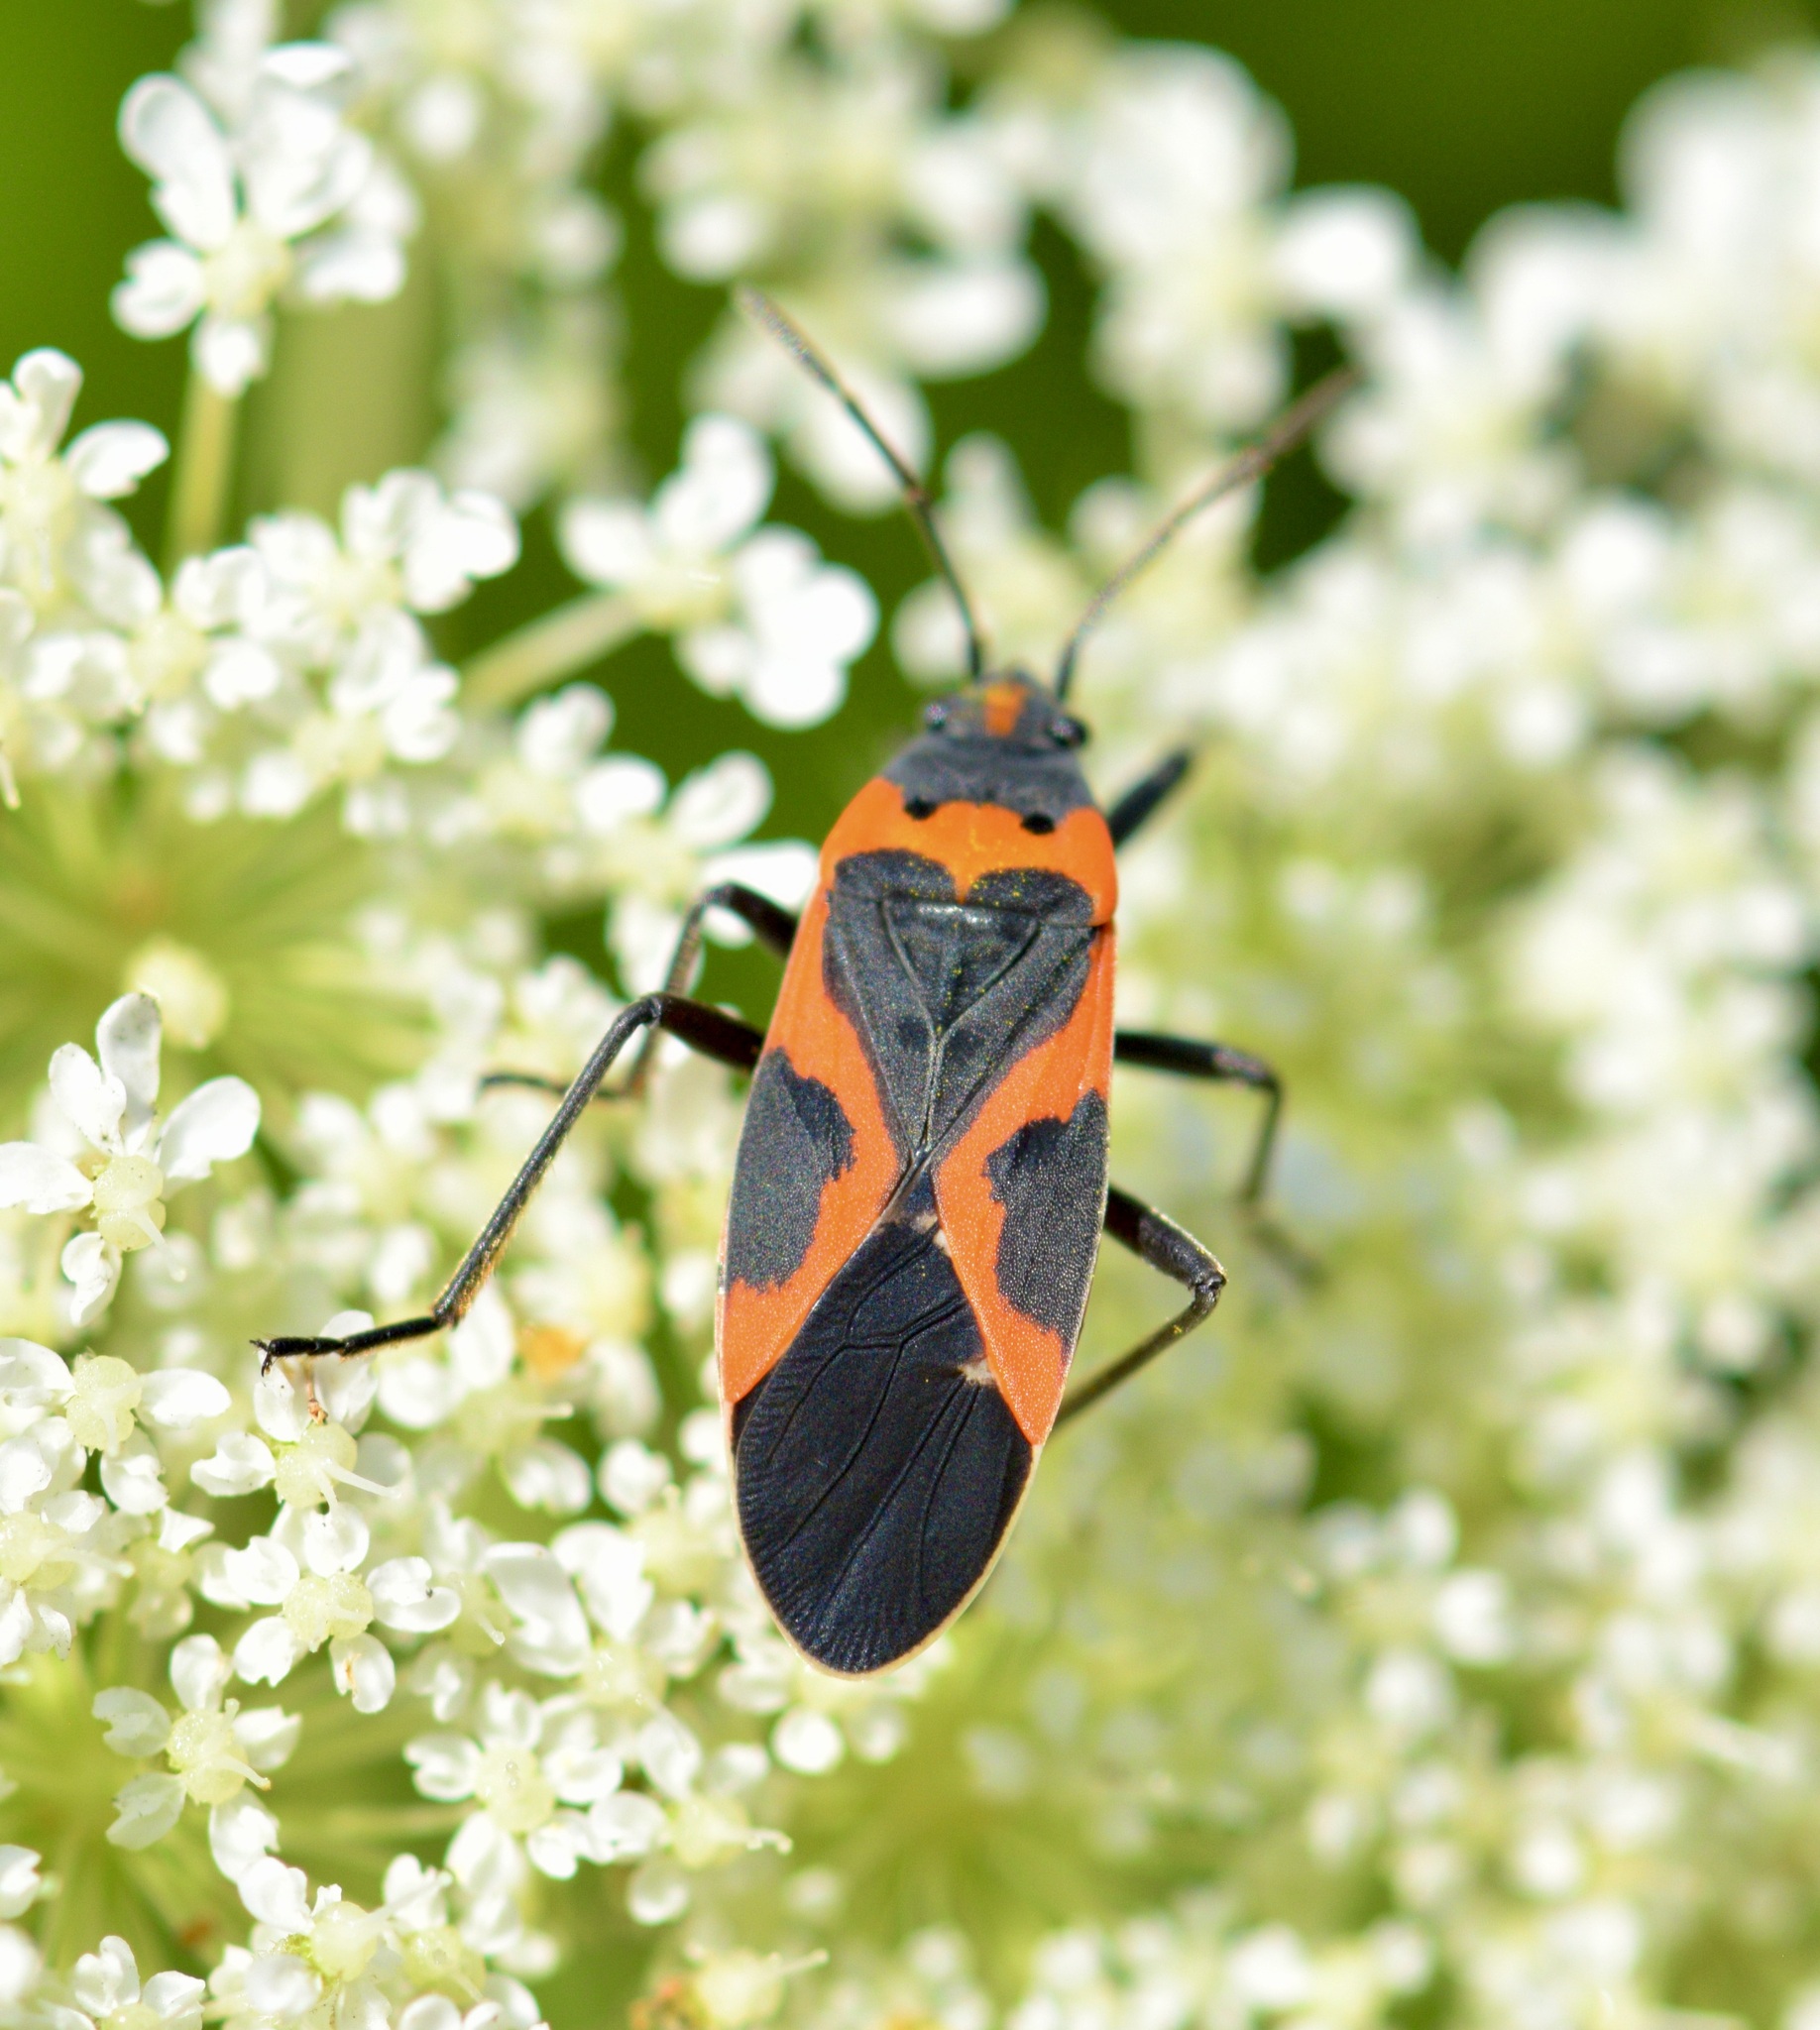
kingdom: Animalia
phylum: Arthropoda
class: Insecta
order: Hemiptera
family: Lygaeidae
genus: Lygaeus
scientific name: Lygaeus kalmii
